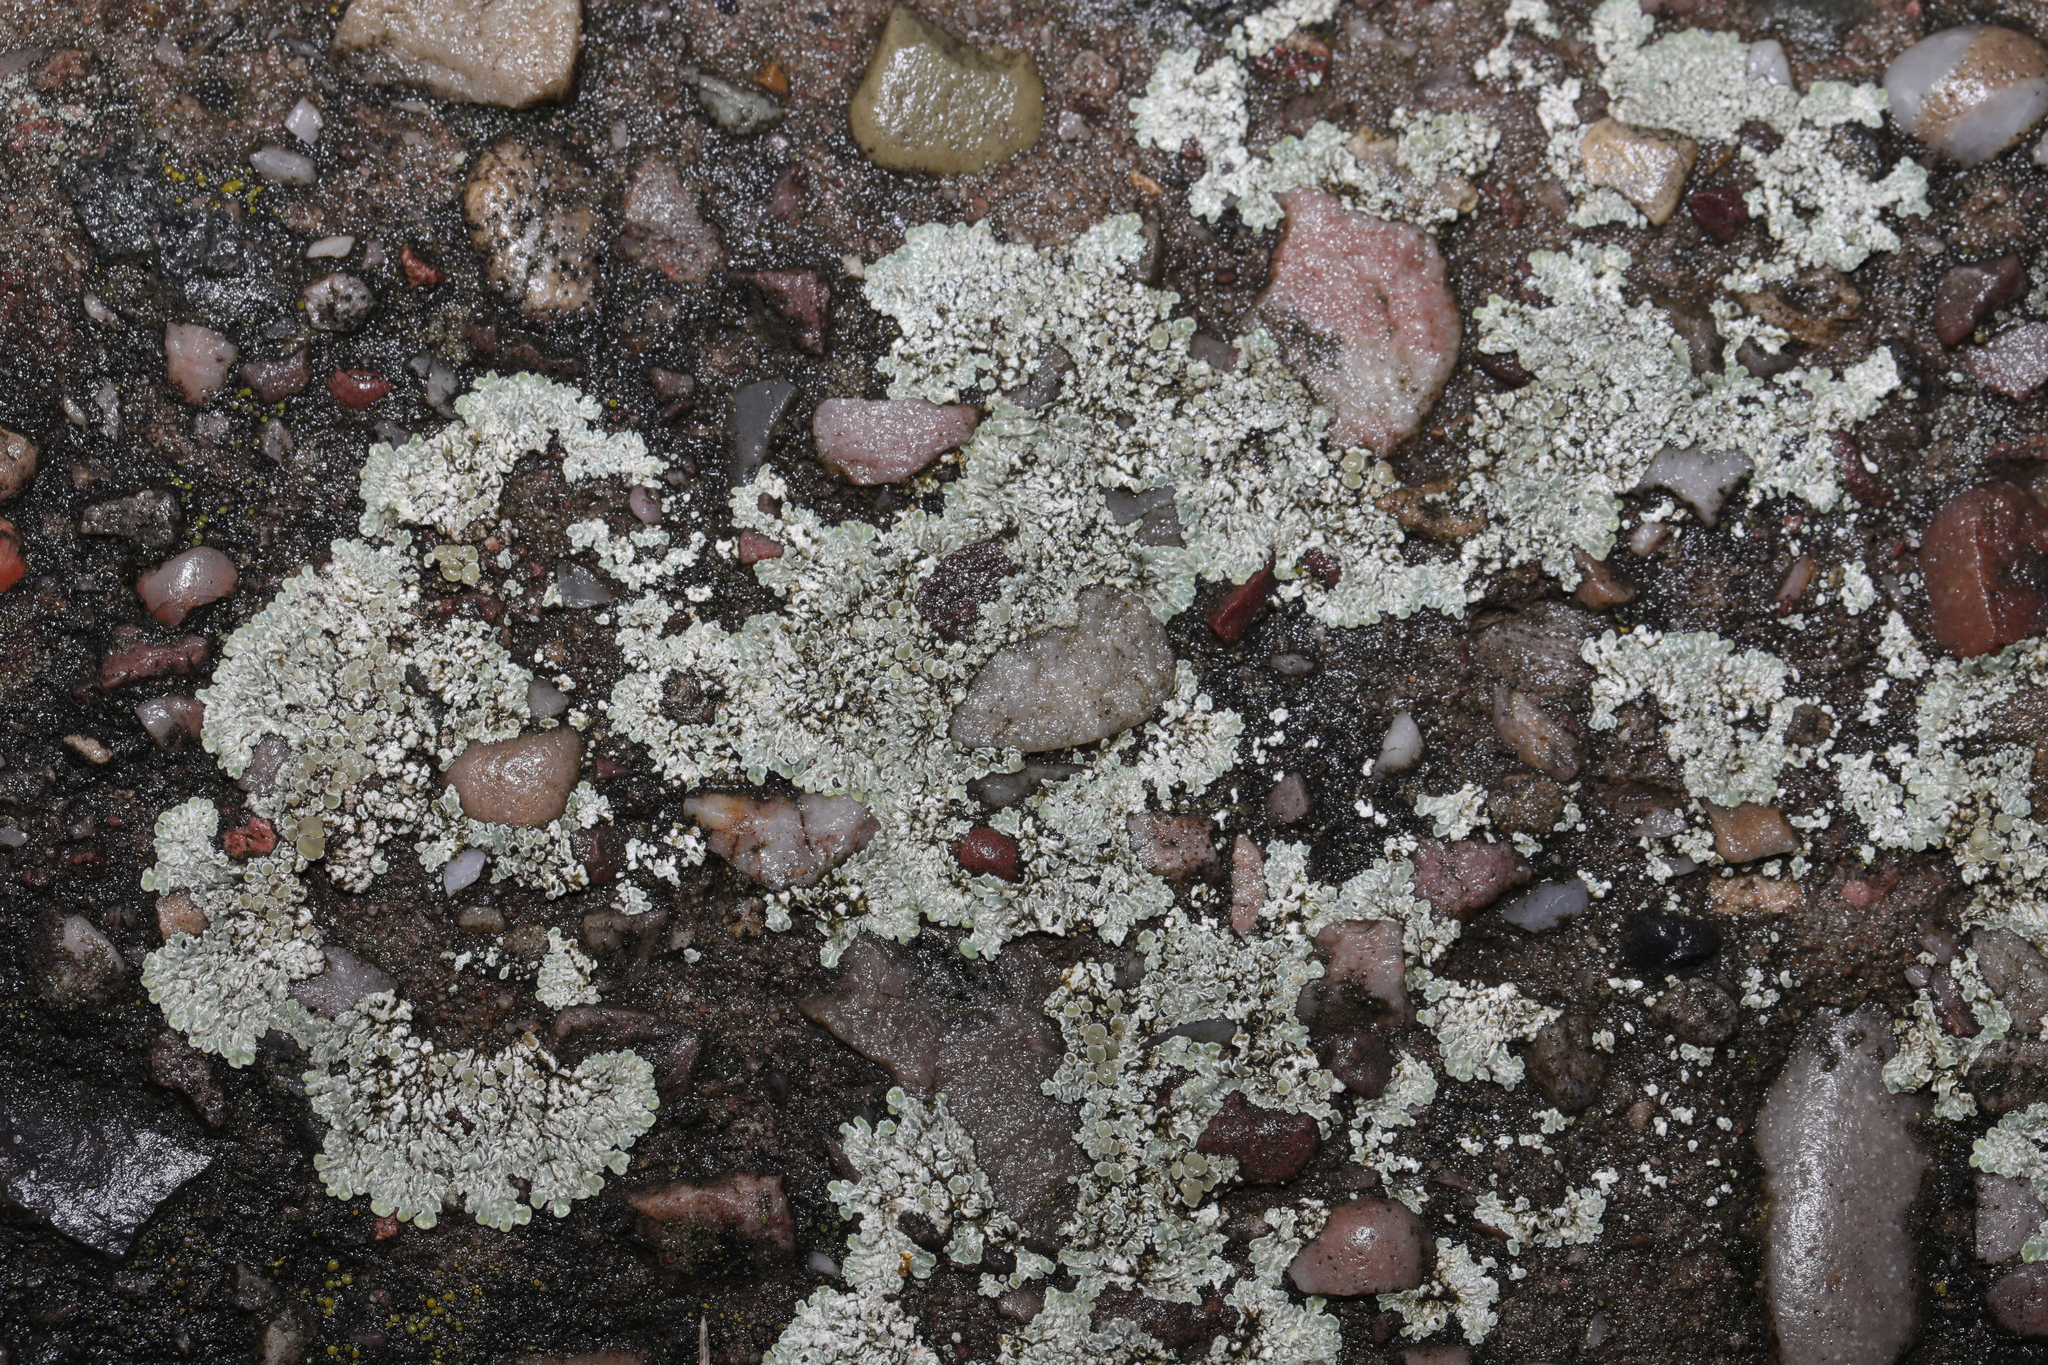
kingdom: Fungi
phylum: Ascomycota
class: Lecanoromycetes
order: Lecanorales
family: Lecanoraceae
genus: Protoparmeliopsis
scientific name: Protoparmeliopsis muralis
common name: Stonewall rim lichen
